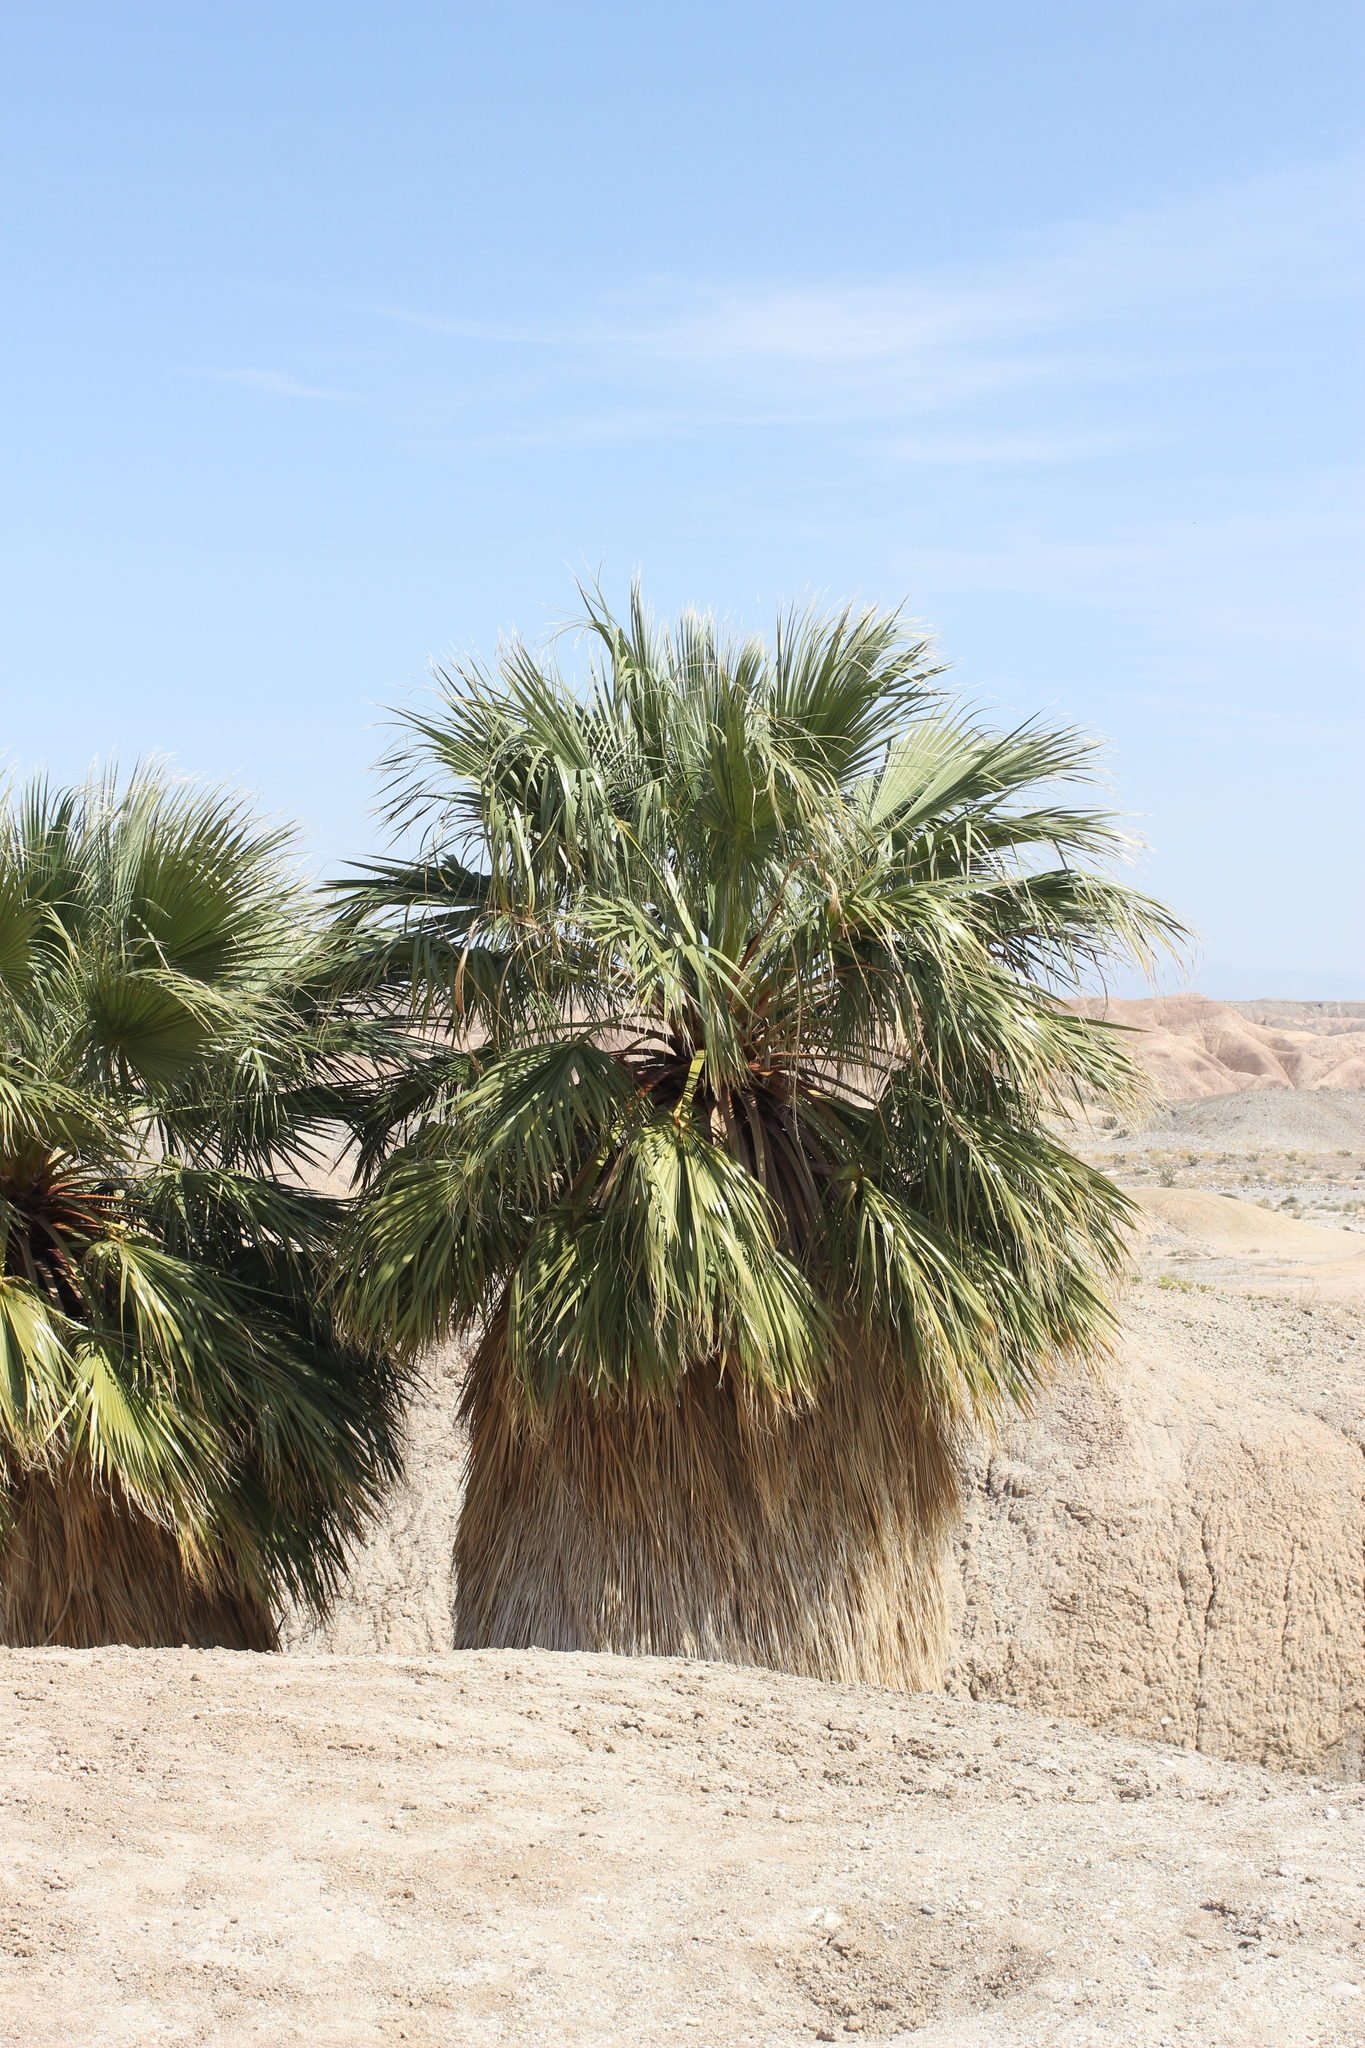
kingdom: Plantae
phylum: Tracheophyta
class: Liliopsida
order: Arecales
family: Arecaceae
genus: Washingtonia
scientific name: Washingtonia filifera
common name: California fan palm
